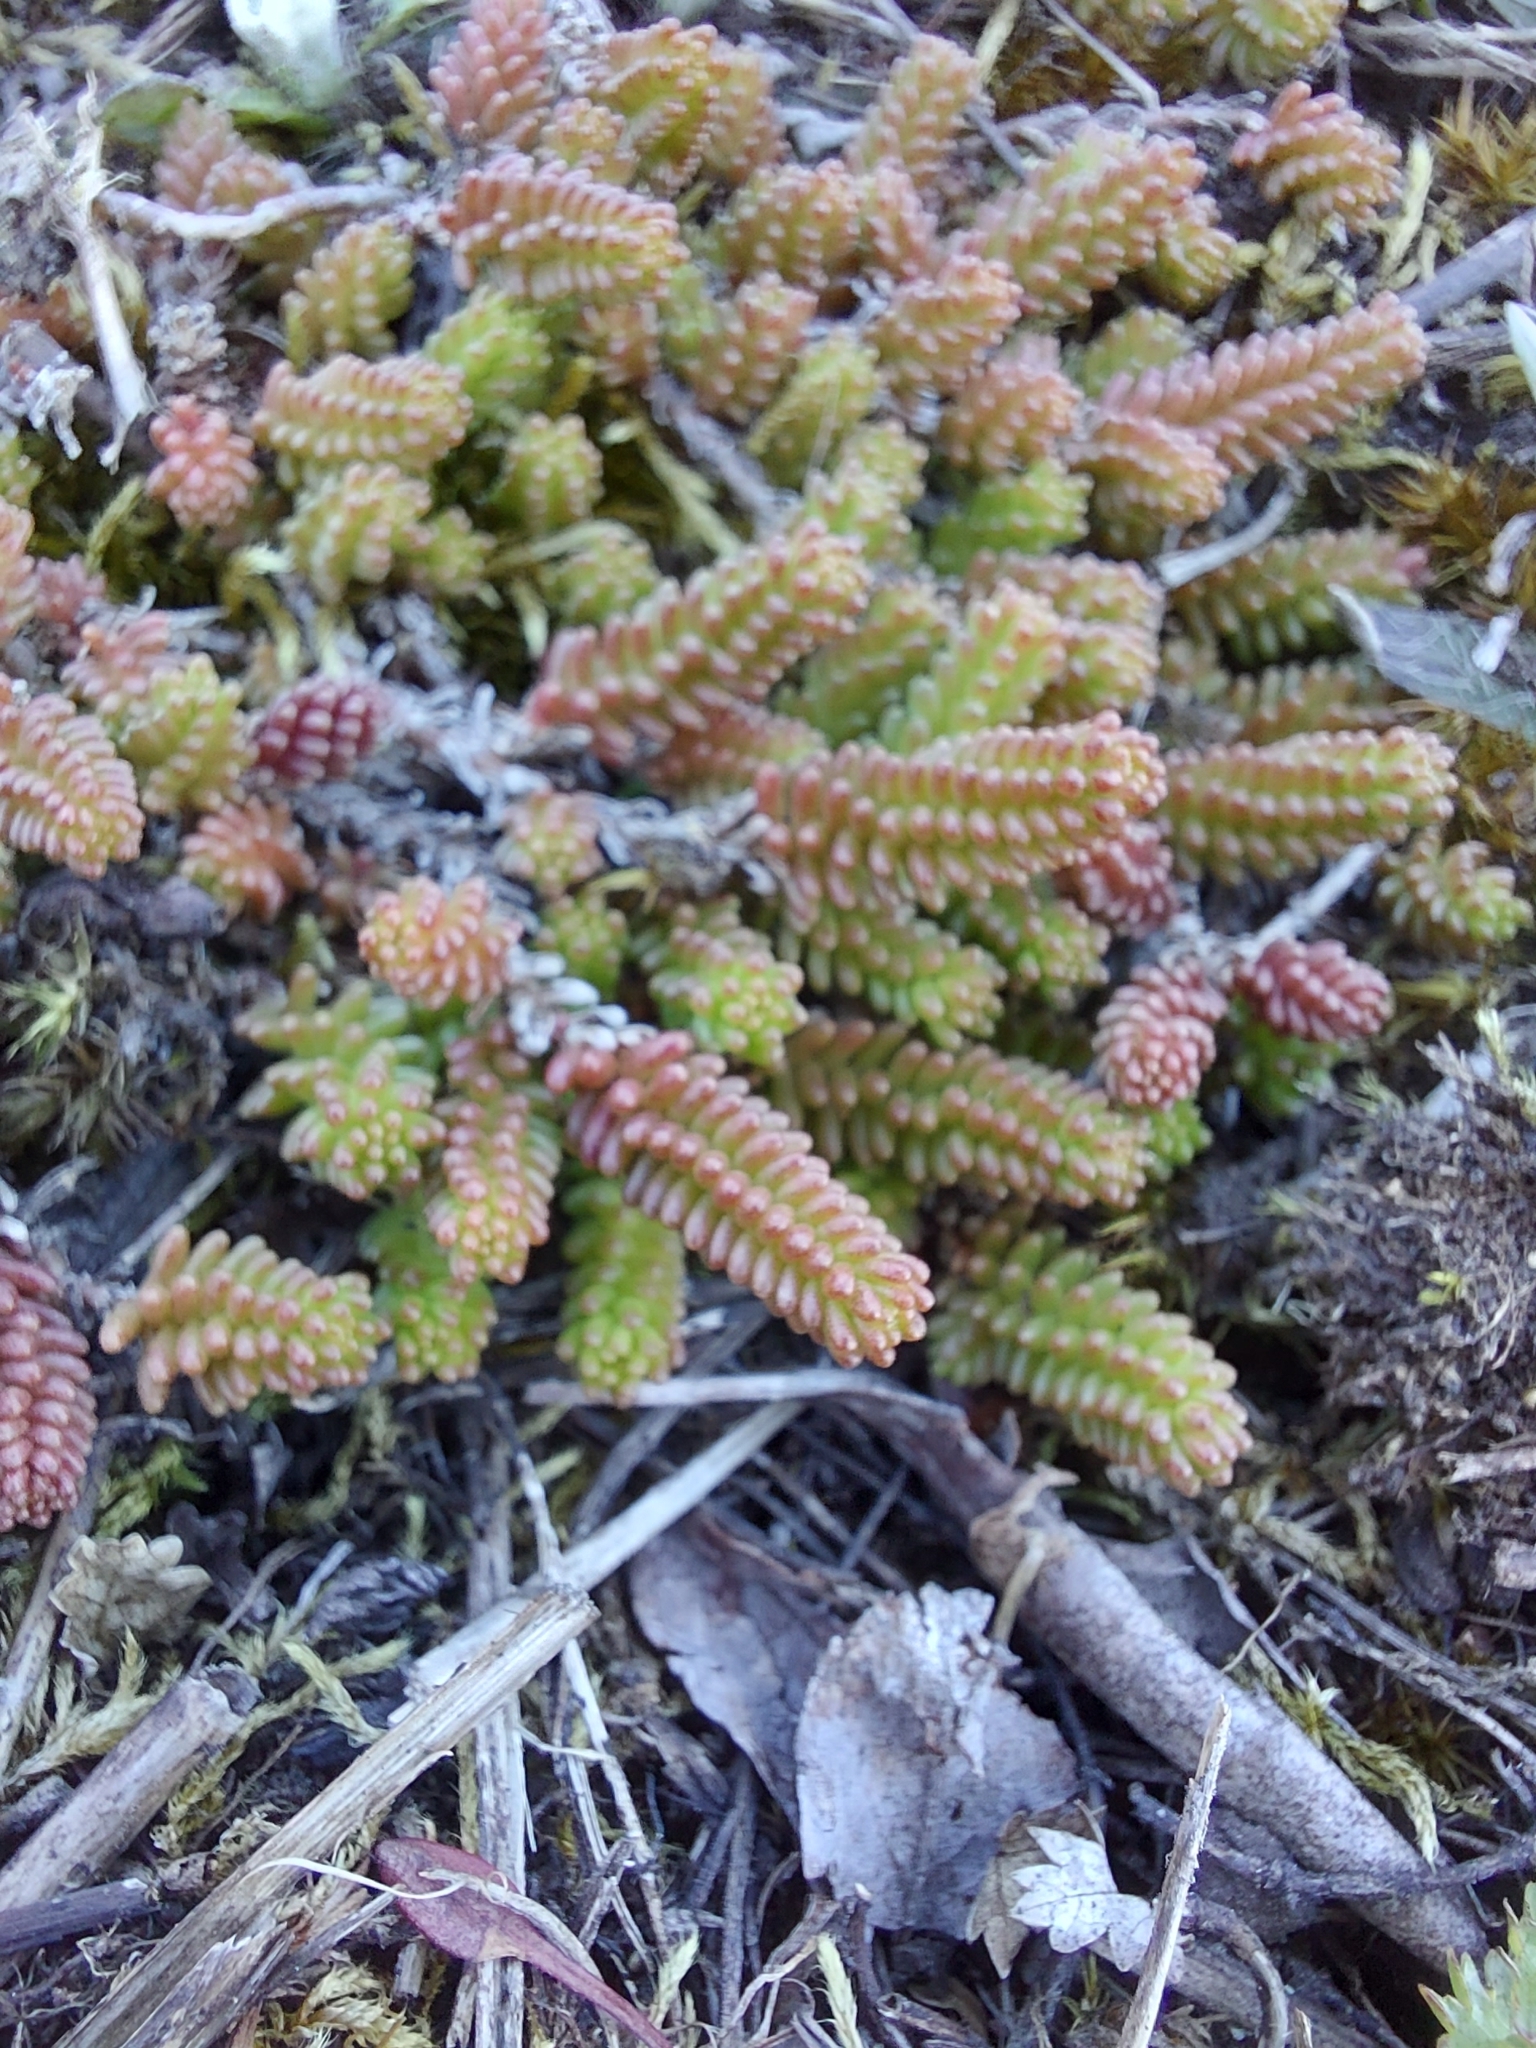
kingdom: Plantae
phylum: Tracheophyta
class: Magnoliopsida
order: Saxifragales
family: Crassulaceae
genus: Sedum
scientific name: Sedum sexangulare
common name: Tasteless stonecrop
